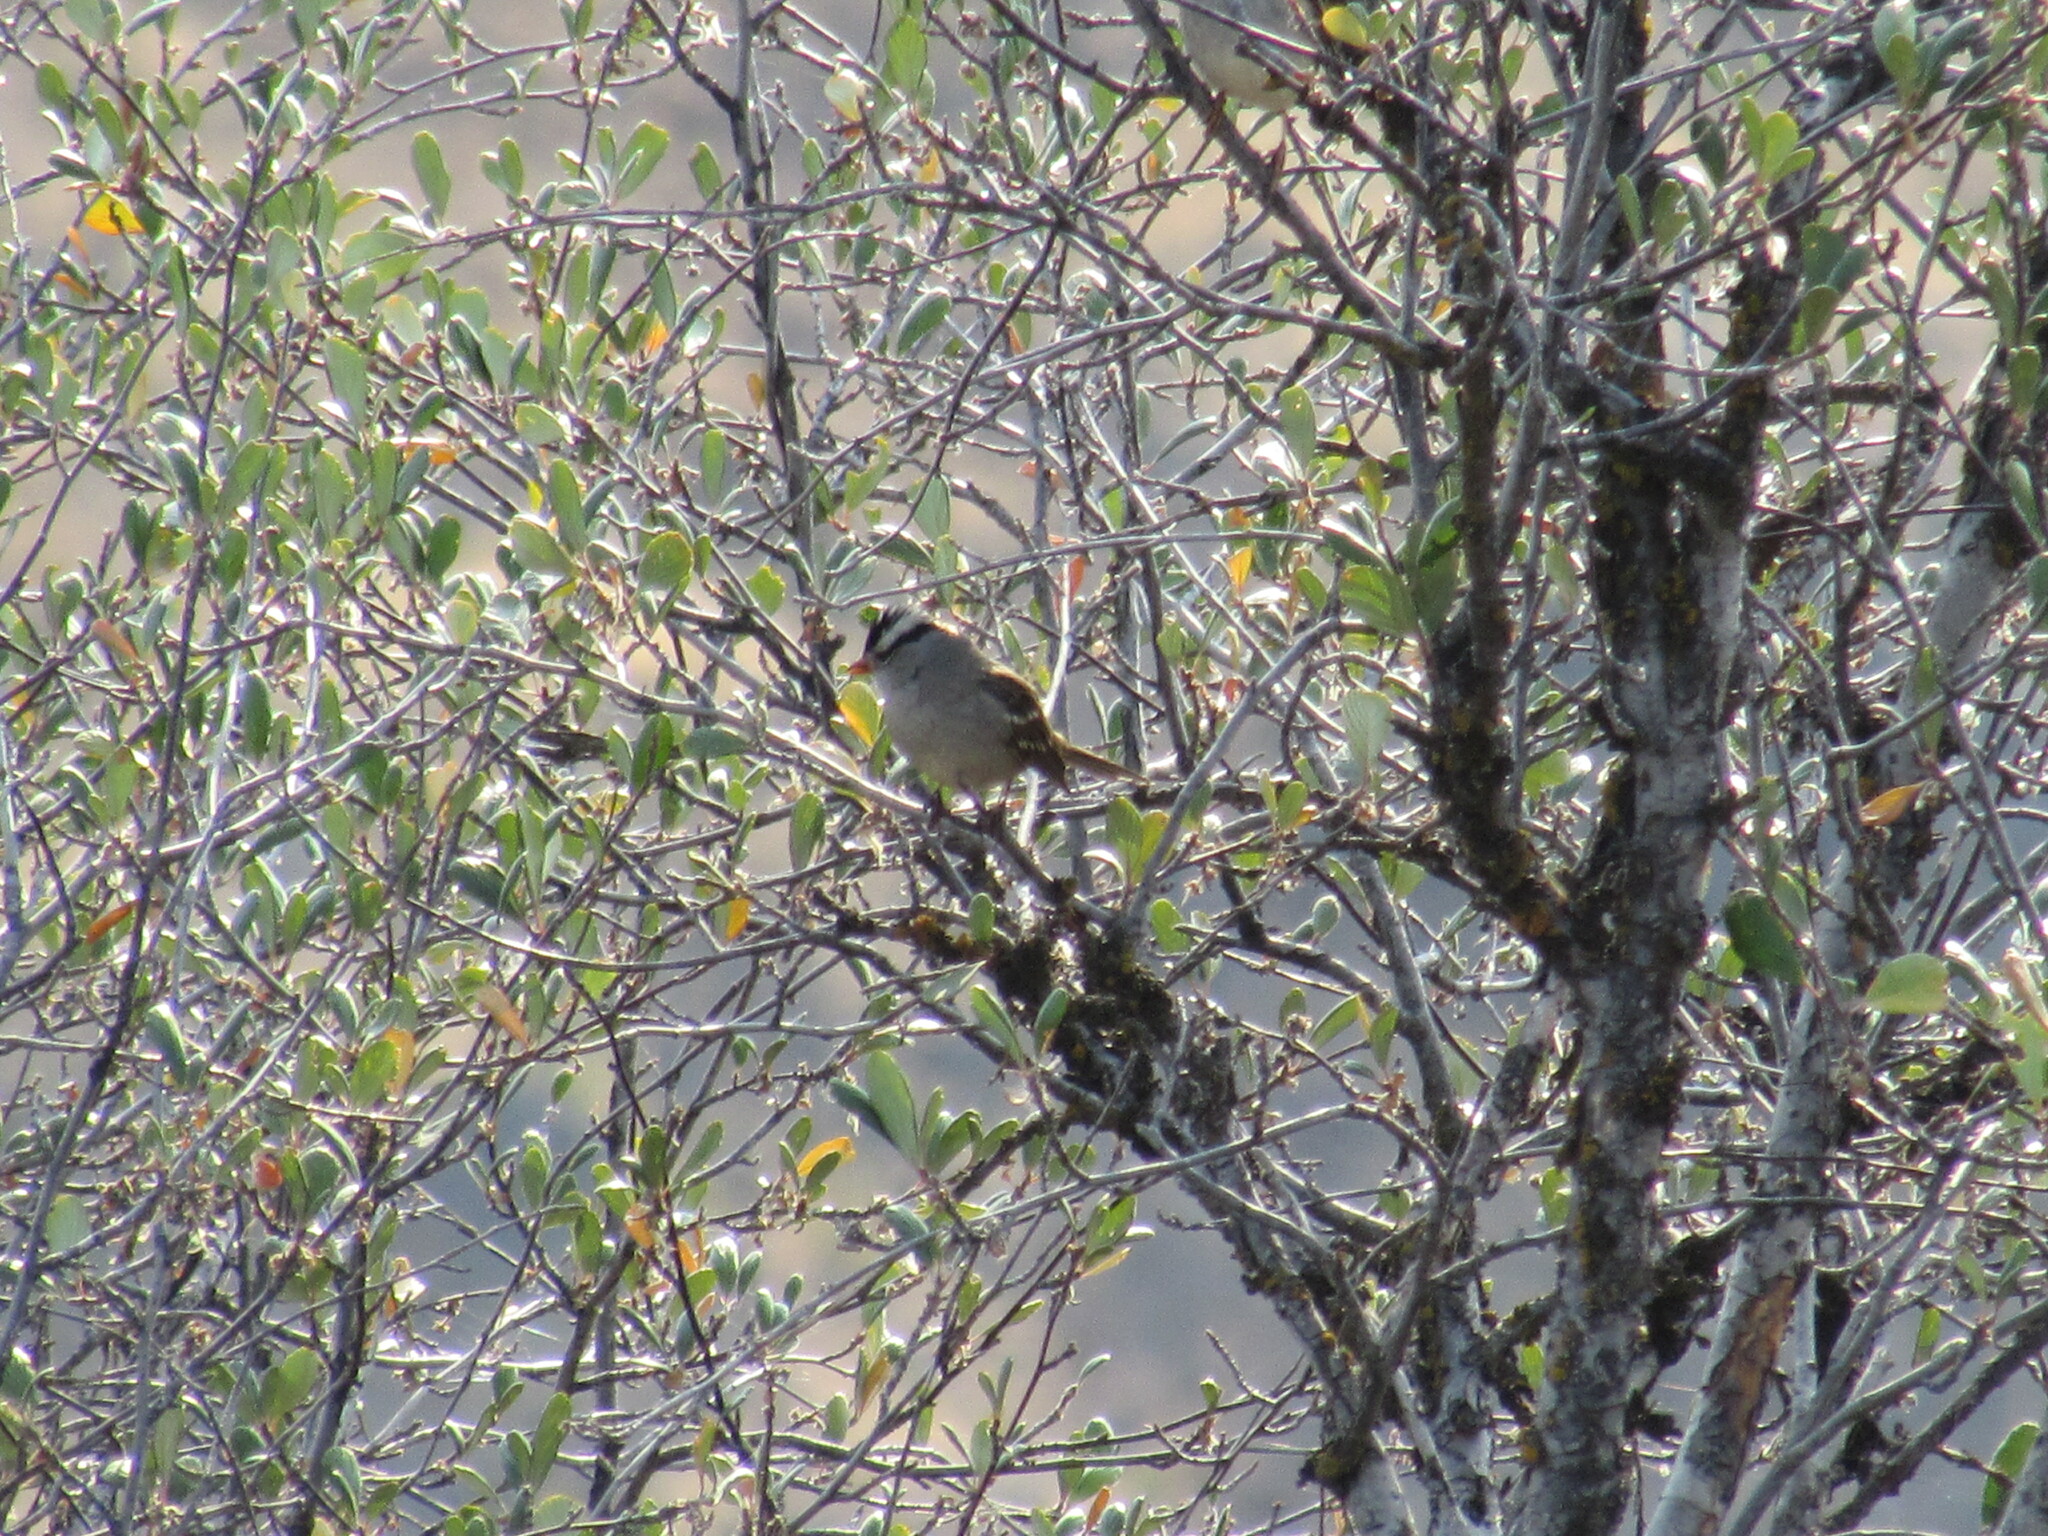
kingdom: Animalia
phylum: Chordata
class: Aves
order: Passeriformes
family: Passerellidae
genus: Zonotrichia
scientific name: Zonotrichia leucophrys
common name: White-crowned sparrow
